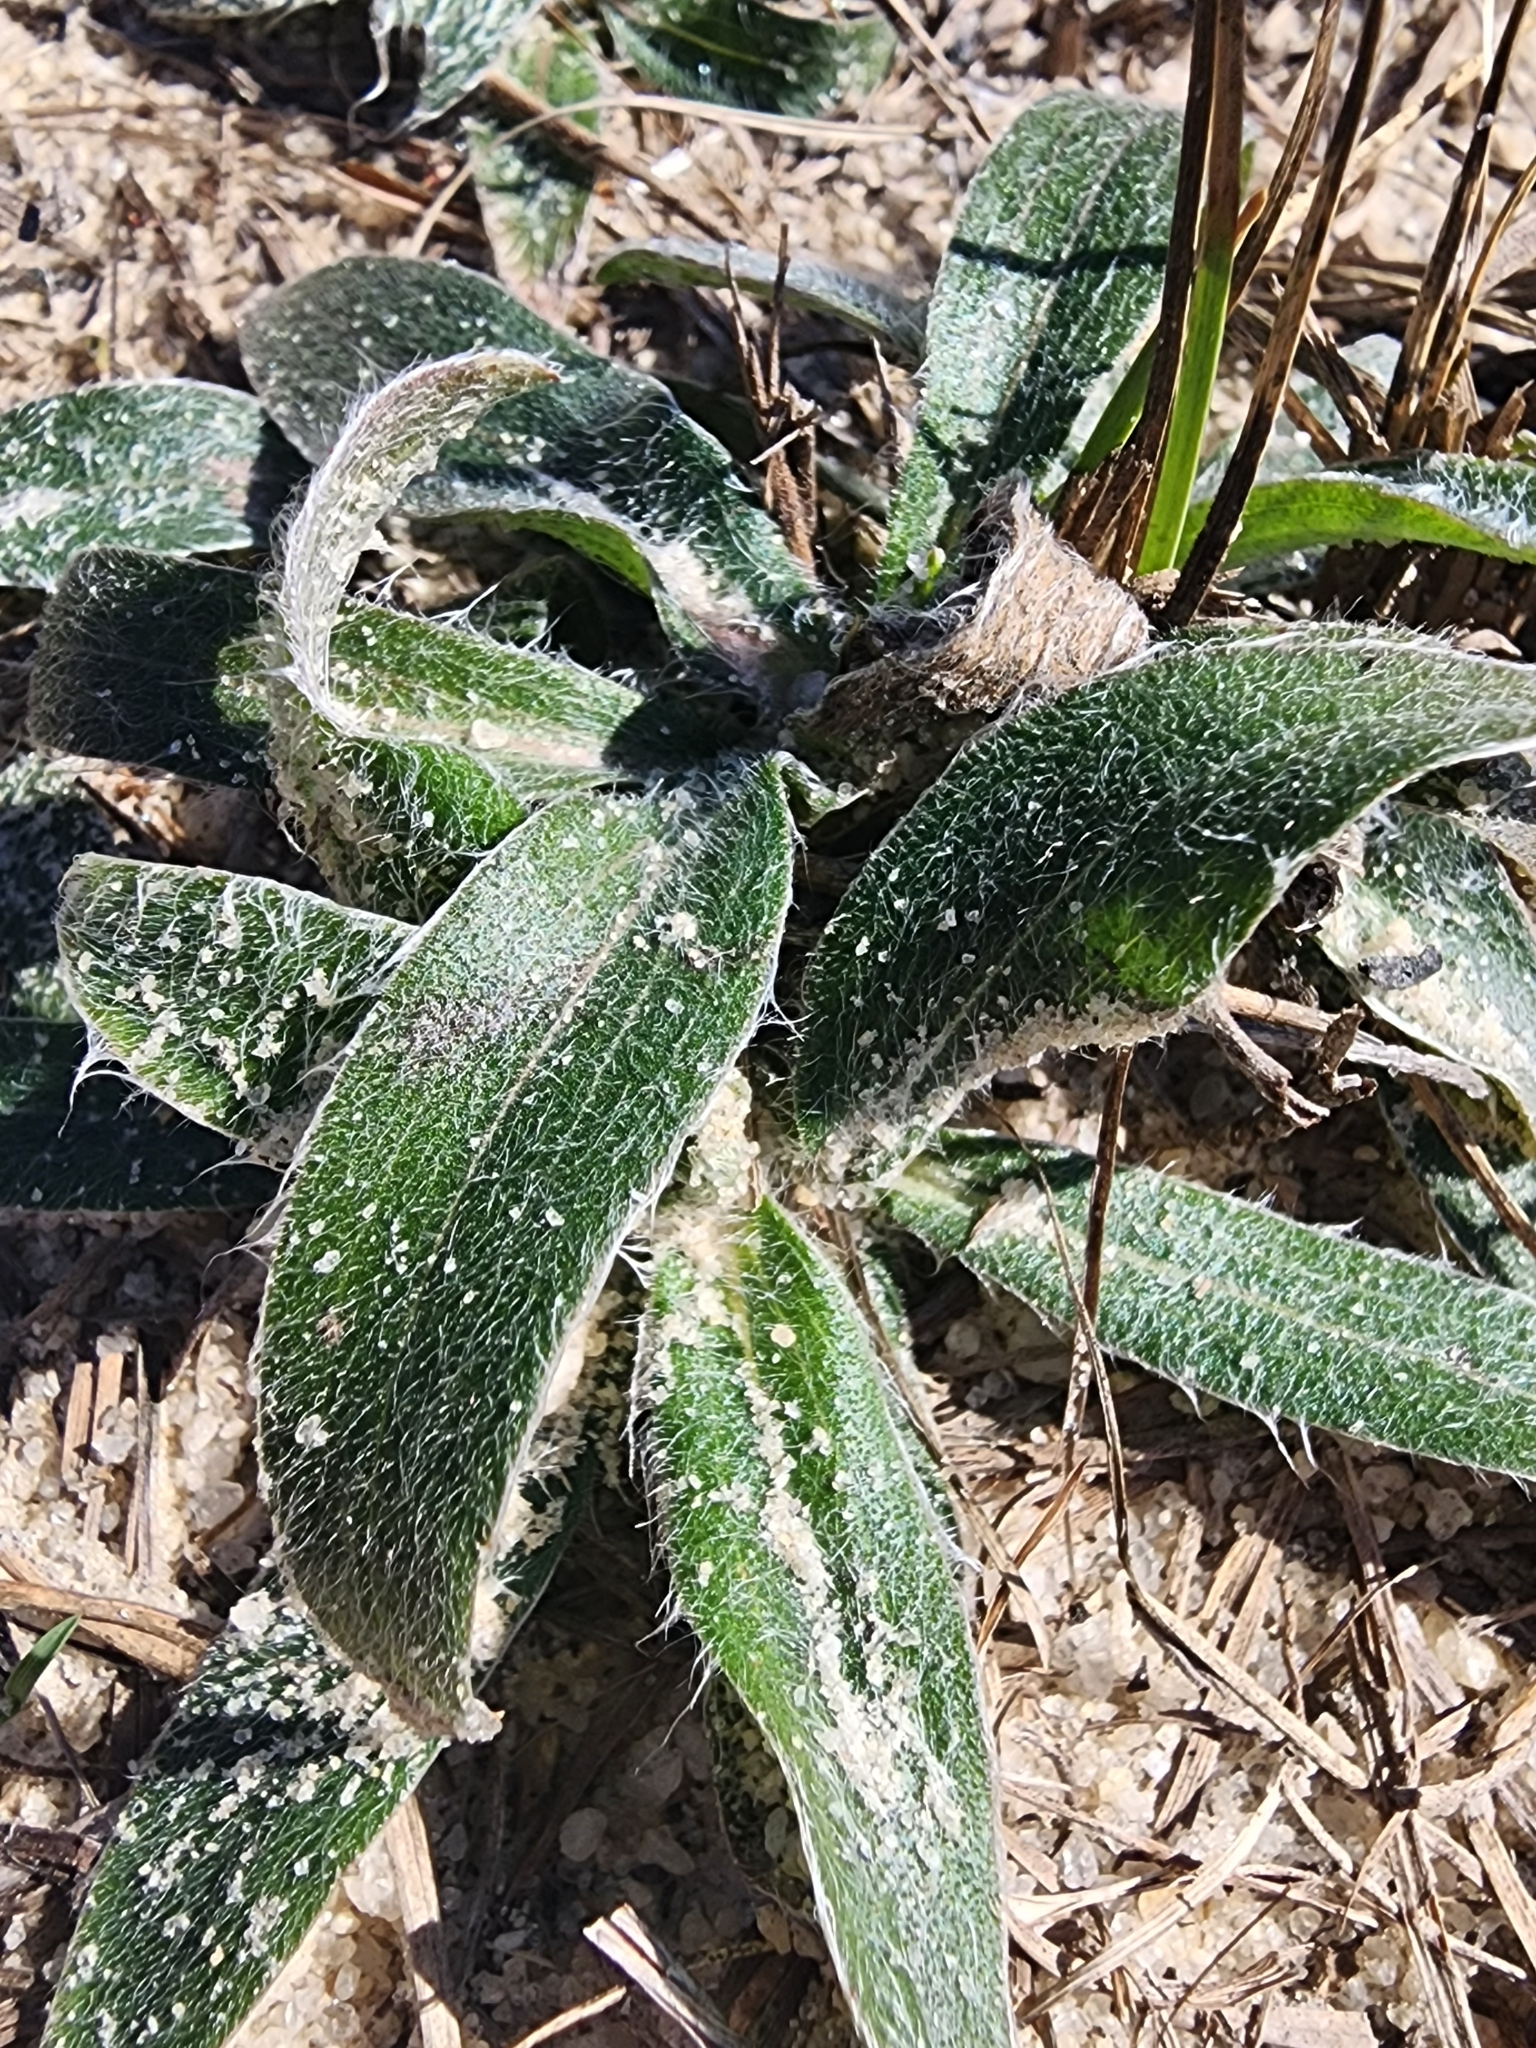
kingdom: Plantae
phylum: Tracheophyta
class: Magnoliopsida
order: Asterales
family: Asteraceae
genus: Pityopsis
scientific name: Pityopsis flexuosa
